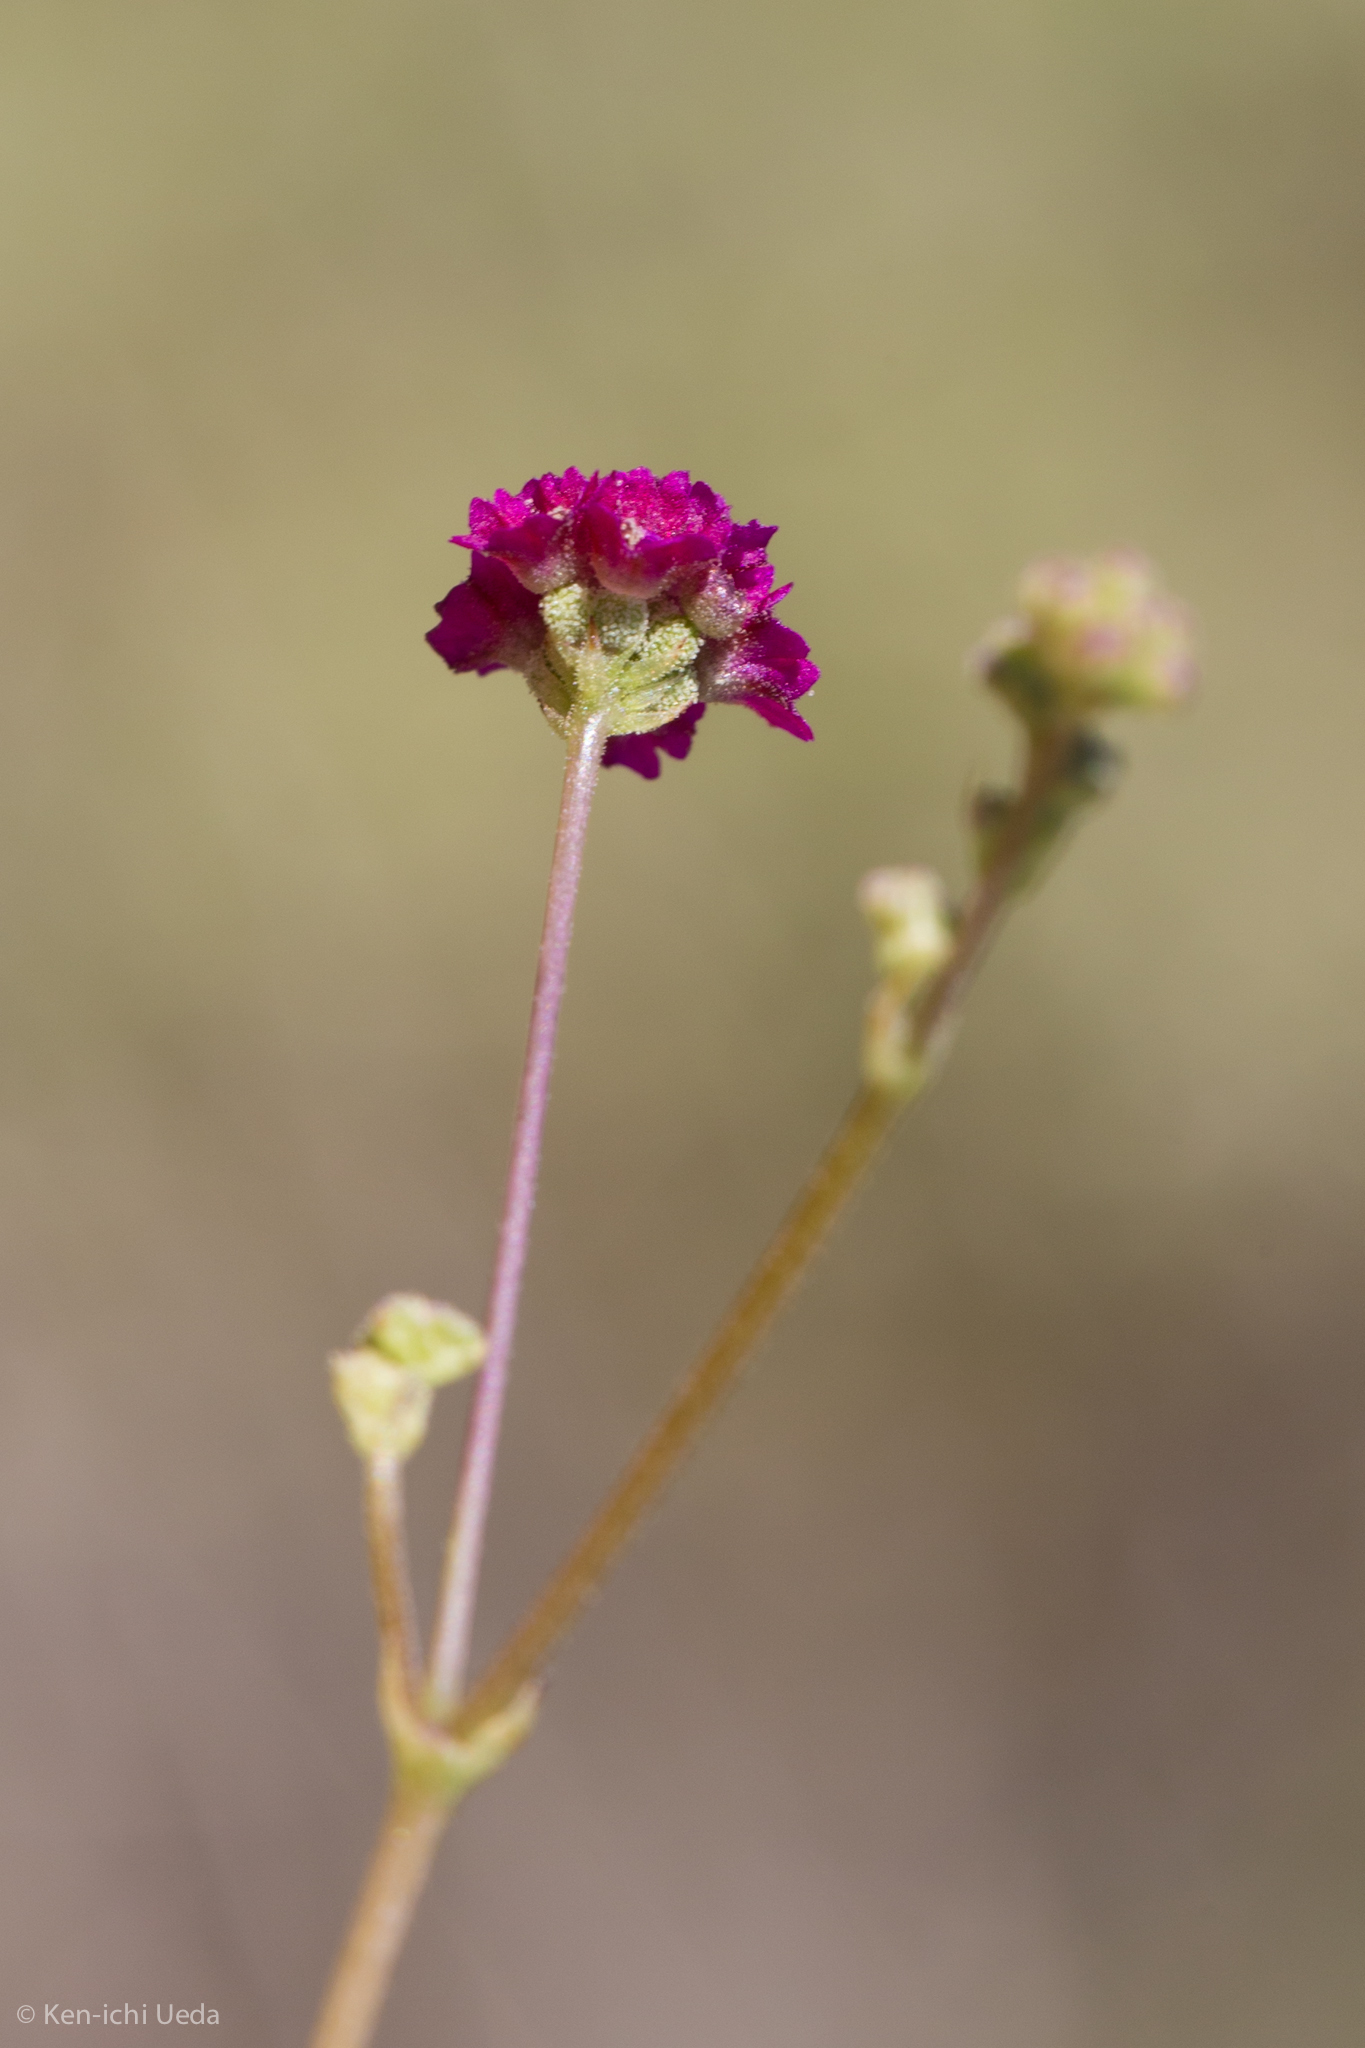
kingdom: Plantae
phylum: Tracheophyta
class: Magnoliopsida
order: Caryophyllales
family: Nyctaginaceae
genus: Boerhavia
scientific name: Boerhavia coccinea
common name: Scarlet spiderling
